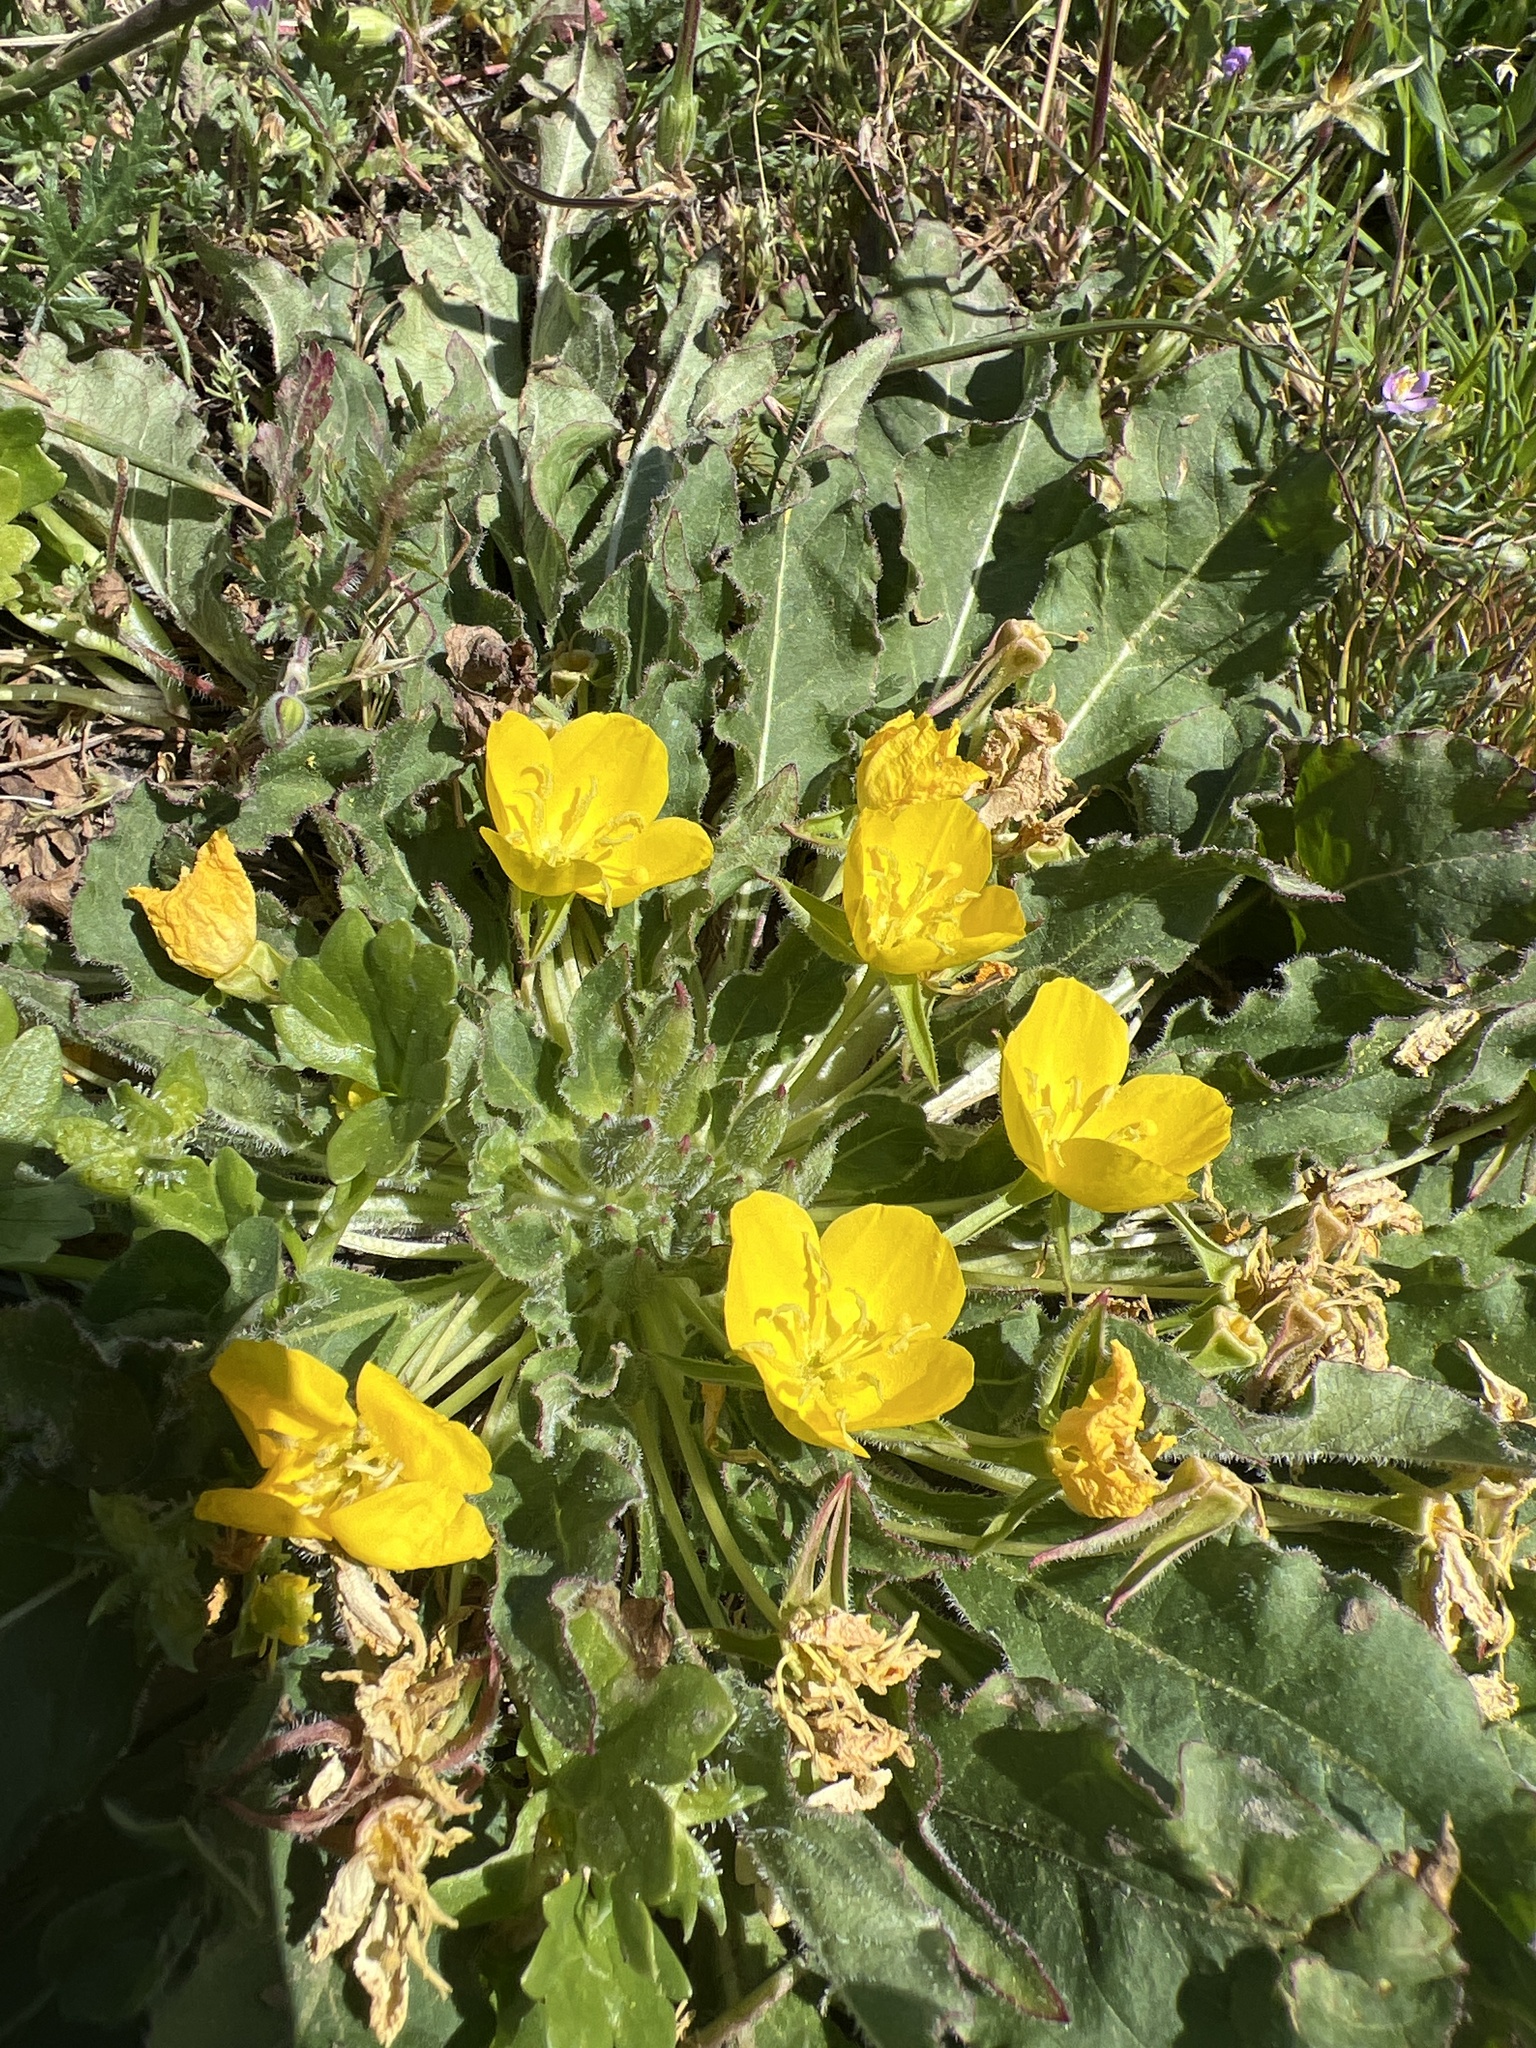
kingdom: Plantae
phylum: Tracheophyta
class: Magnoliopsida
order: Myrtales
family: Onagraceae
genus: Taraxia
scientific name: Taraxia ovata
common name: Goldeneggs
